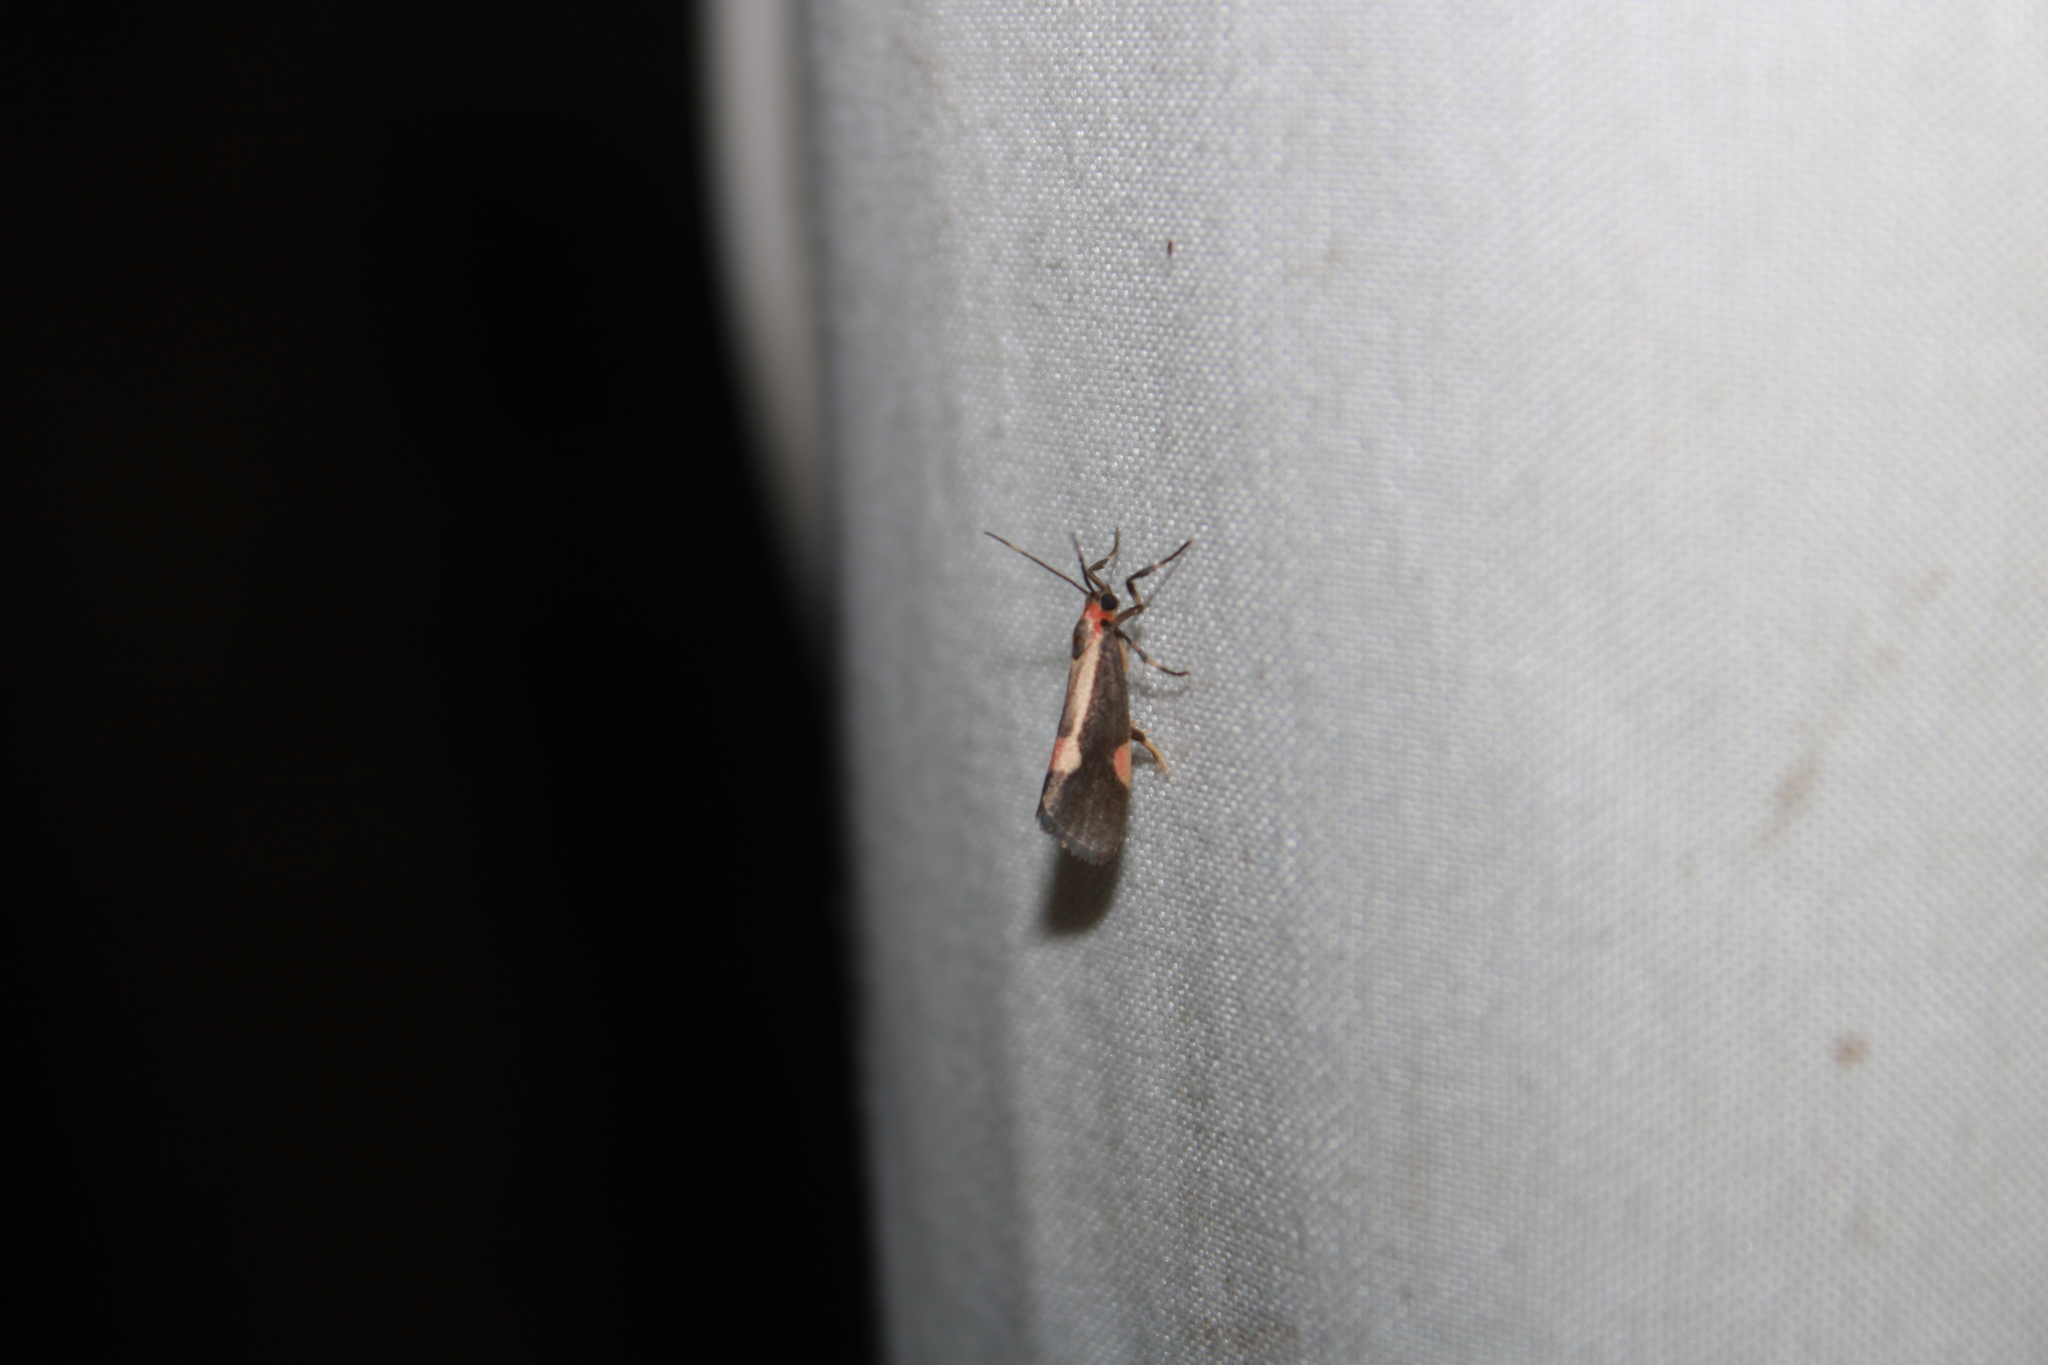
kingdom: Animalia
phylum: Arthropoda
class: Insecta
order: Lepidoptera
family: Erebidae
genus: Cisthene
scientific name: Cisthene packardii
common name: Packard's lichen moth
